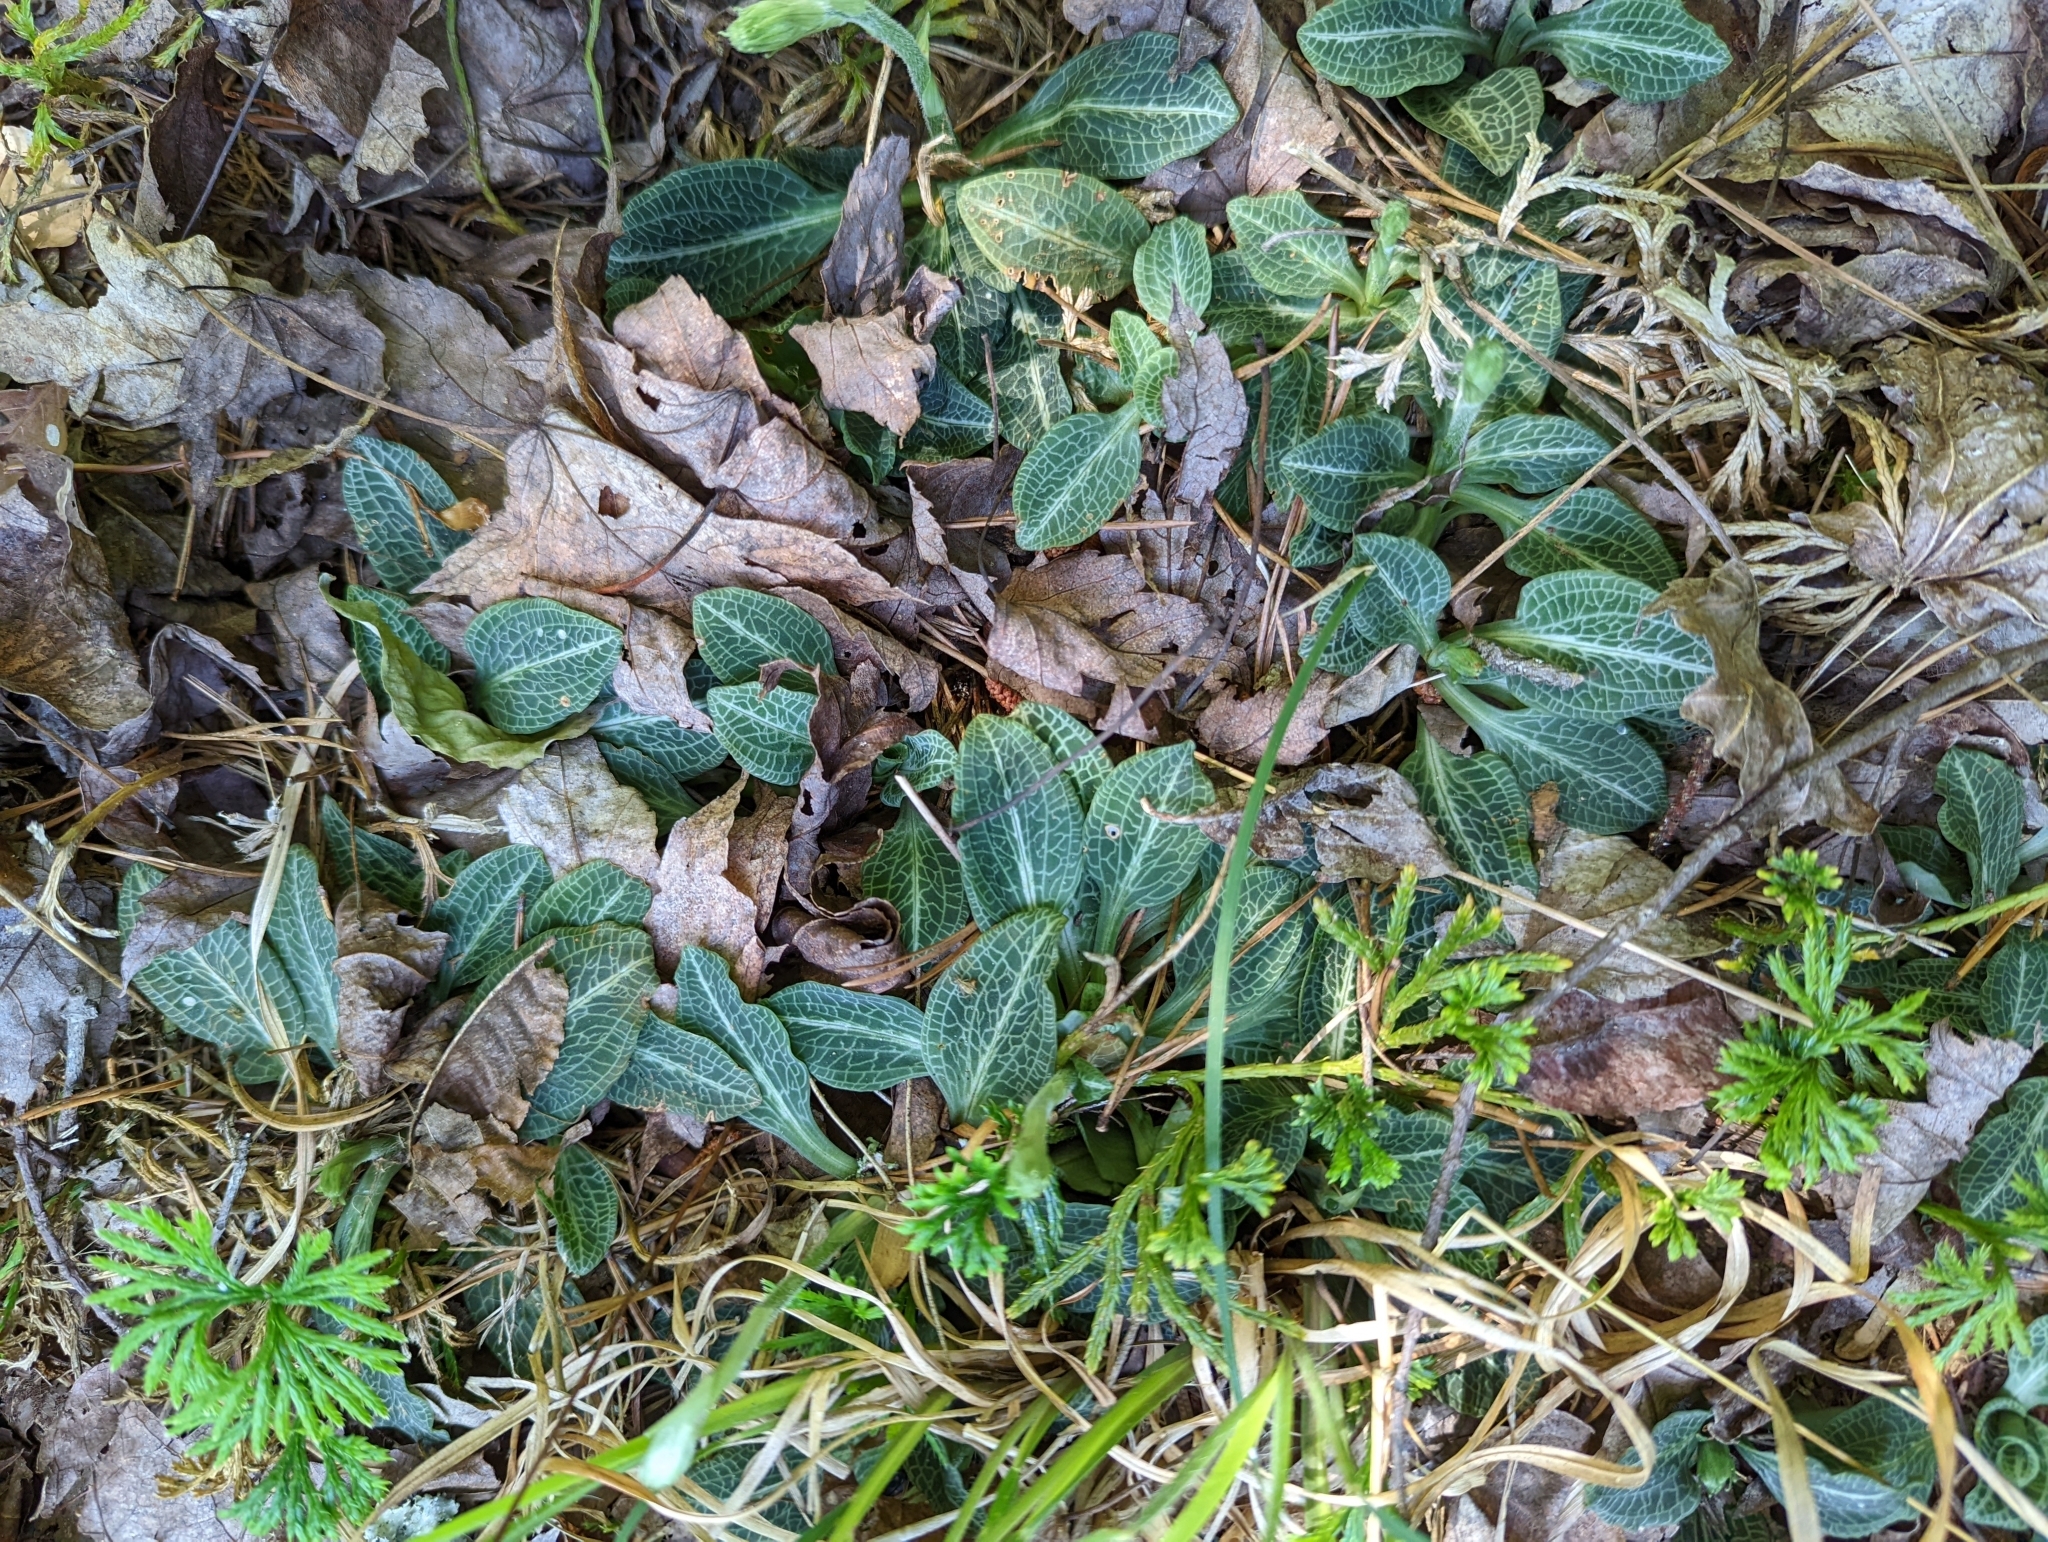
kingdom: Plantae
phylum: Tracheophyta
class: Liliopsida
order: Asparagales
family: Orchidaceae
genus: Goodyera
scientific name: Goodyera pubescens
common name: Downy rattlesnake-plantain
